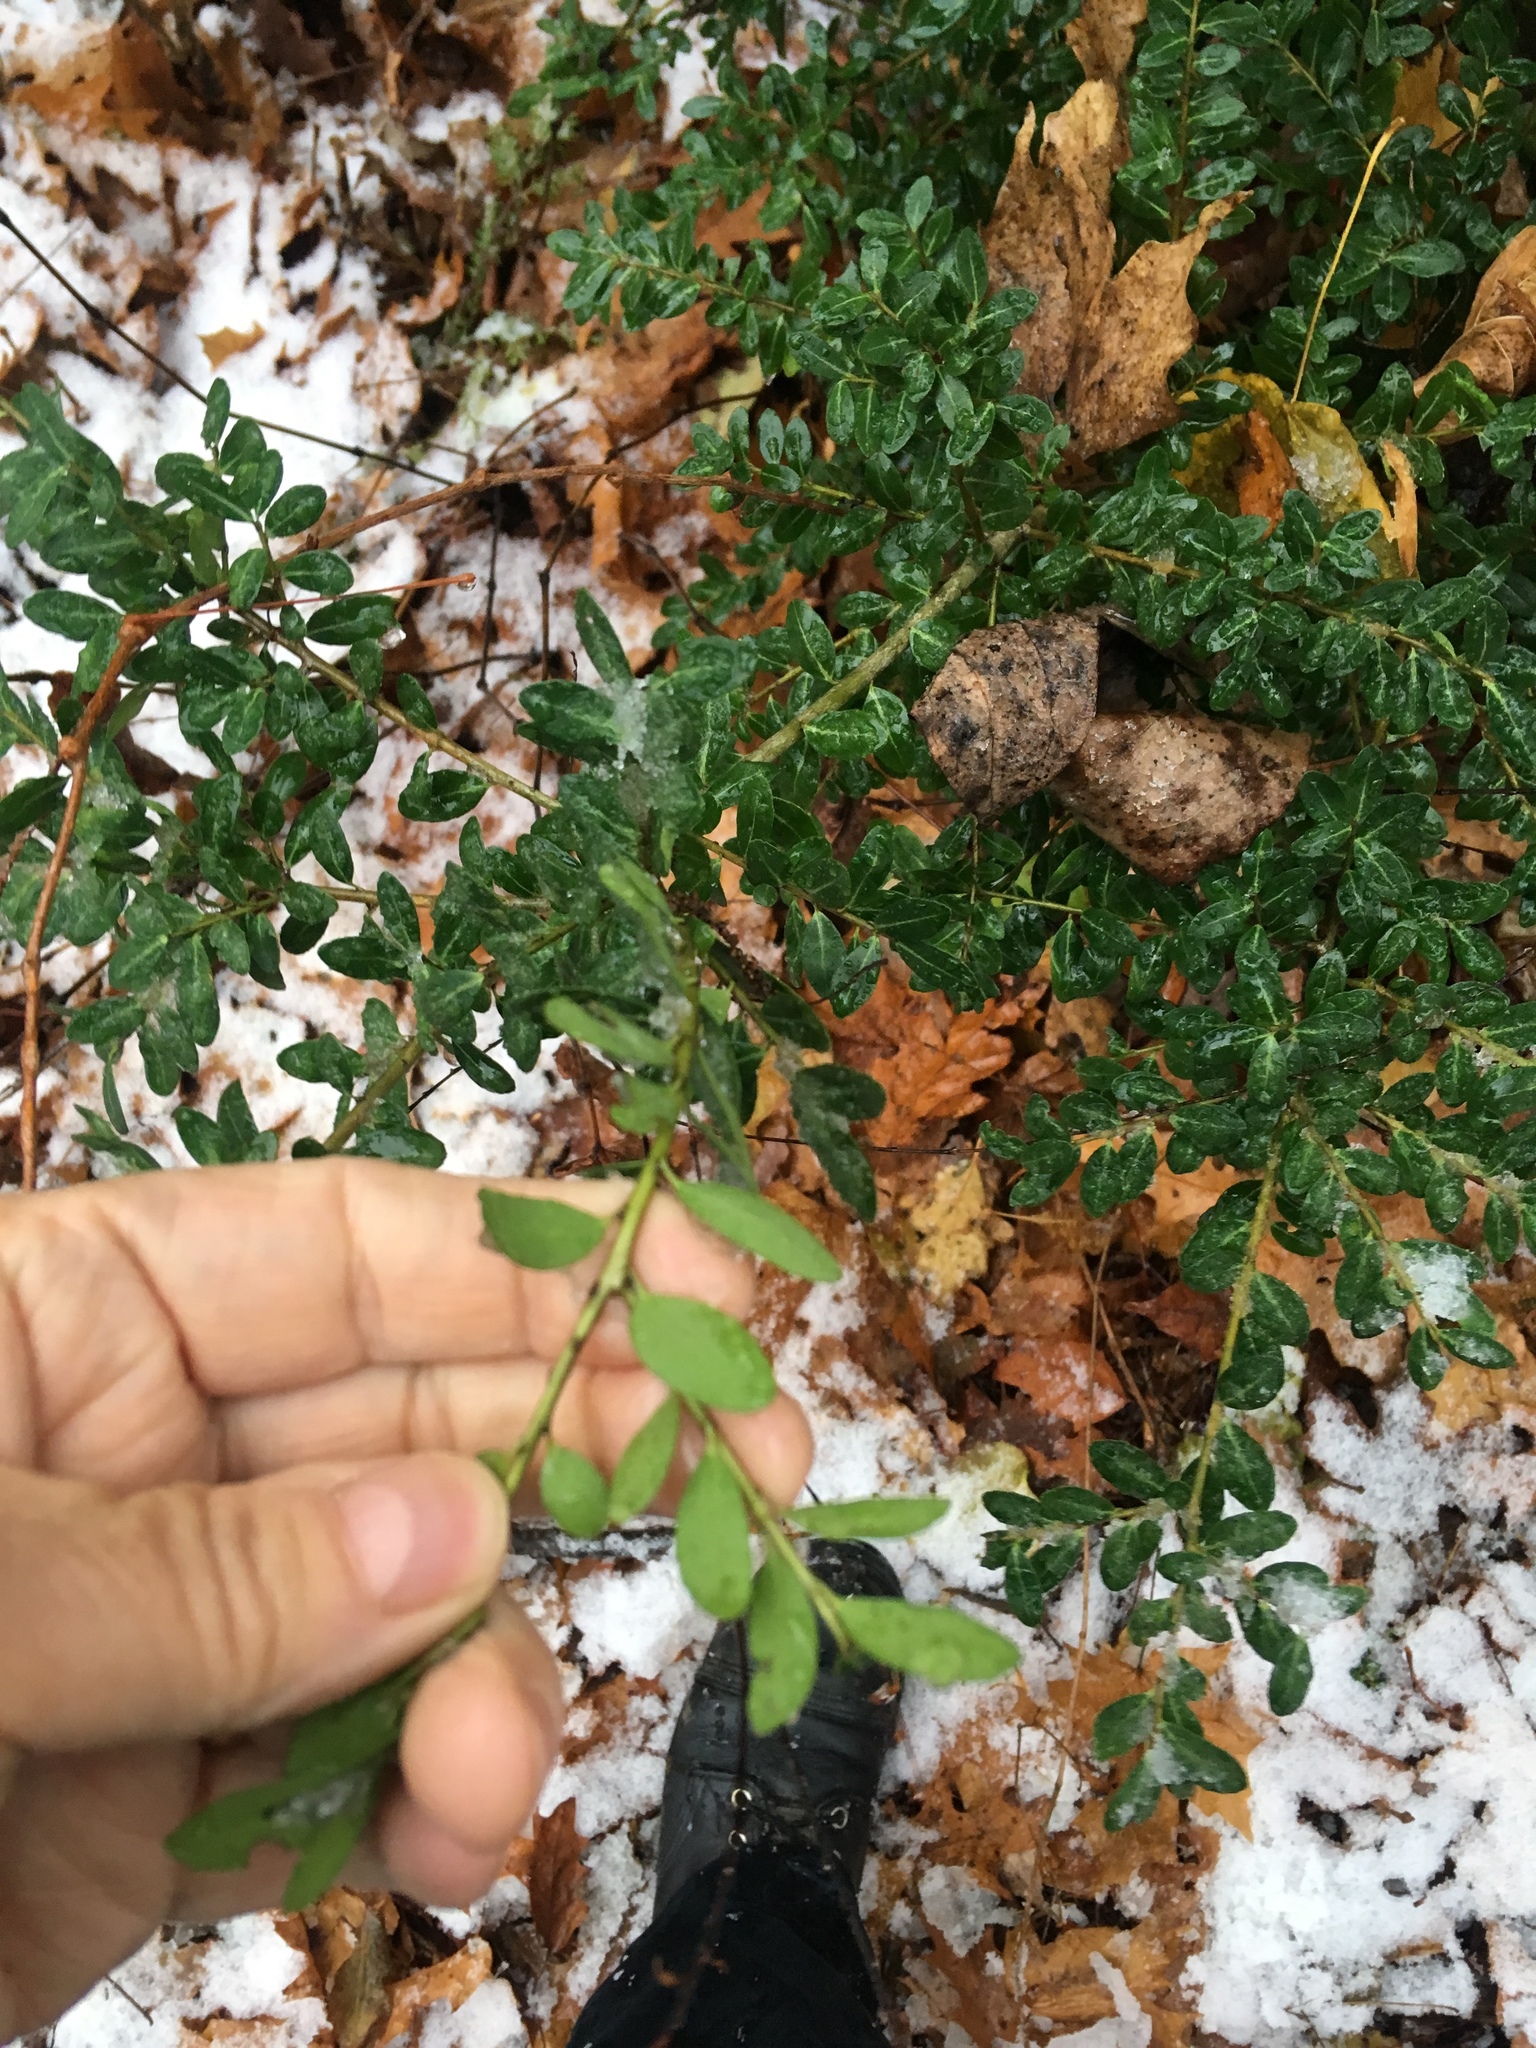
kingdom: Plantae
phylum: Tracheophyta
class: Magnoliopsida
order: Aquifoliales
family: Aquifoliaceae
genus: Ilex
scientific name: Ilex crenata
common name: Japanese holly
